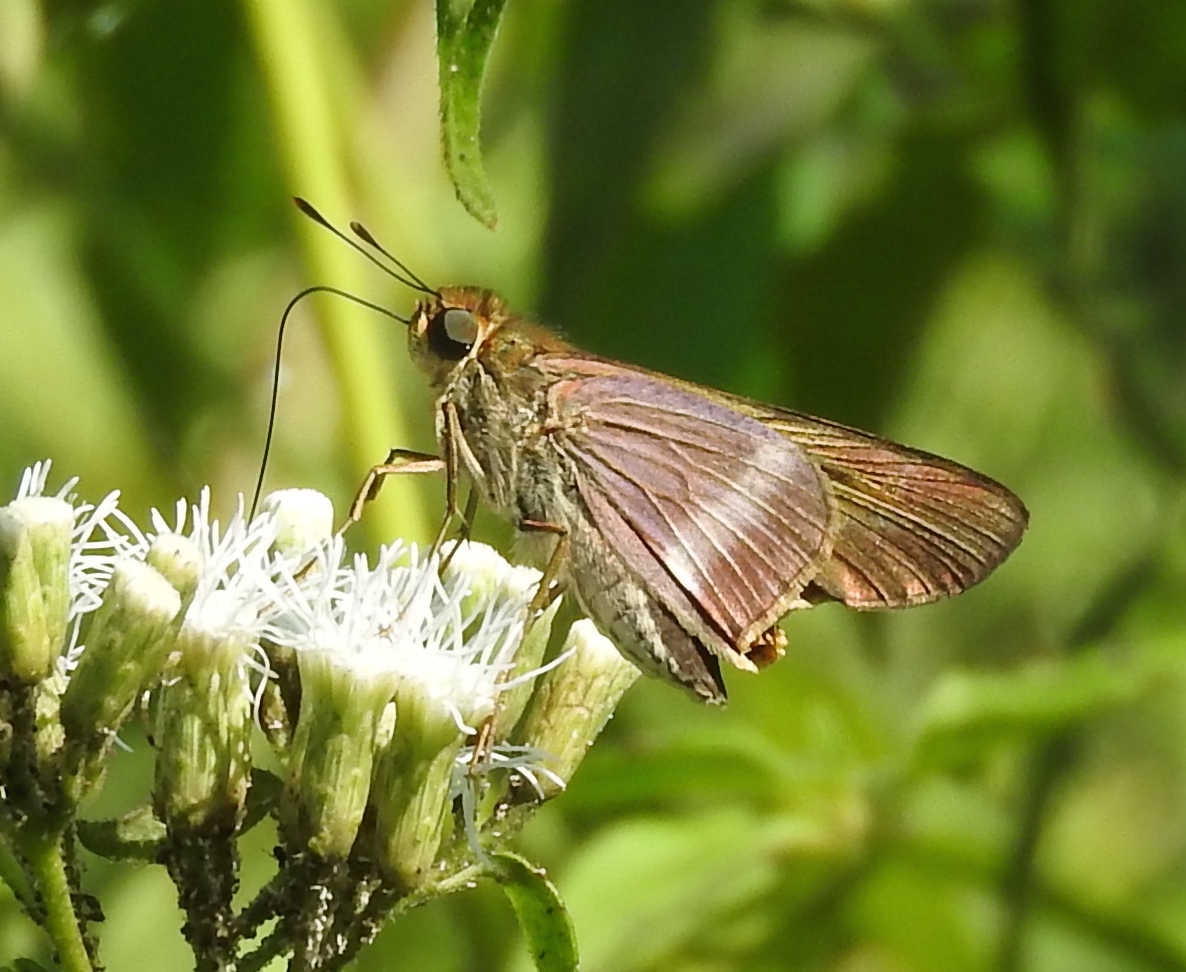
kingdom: Animalia
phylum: Arthropoda
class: Insecta
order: Lepidoptera
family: Hesperiidae
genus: Panoquina
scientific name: Panoquina fusina
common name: Evans' skipper
